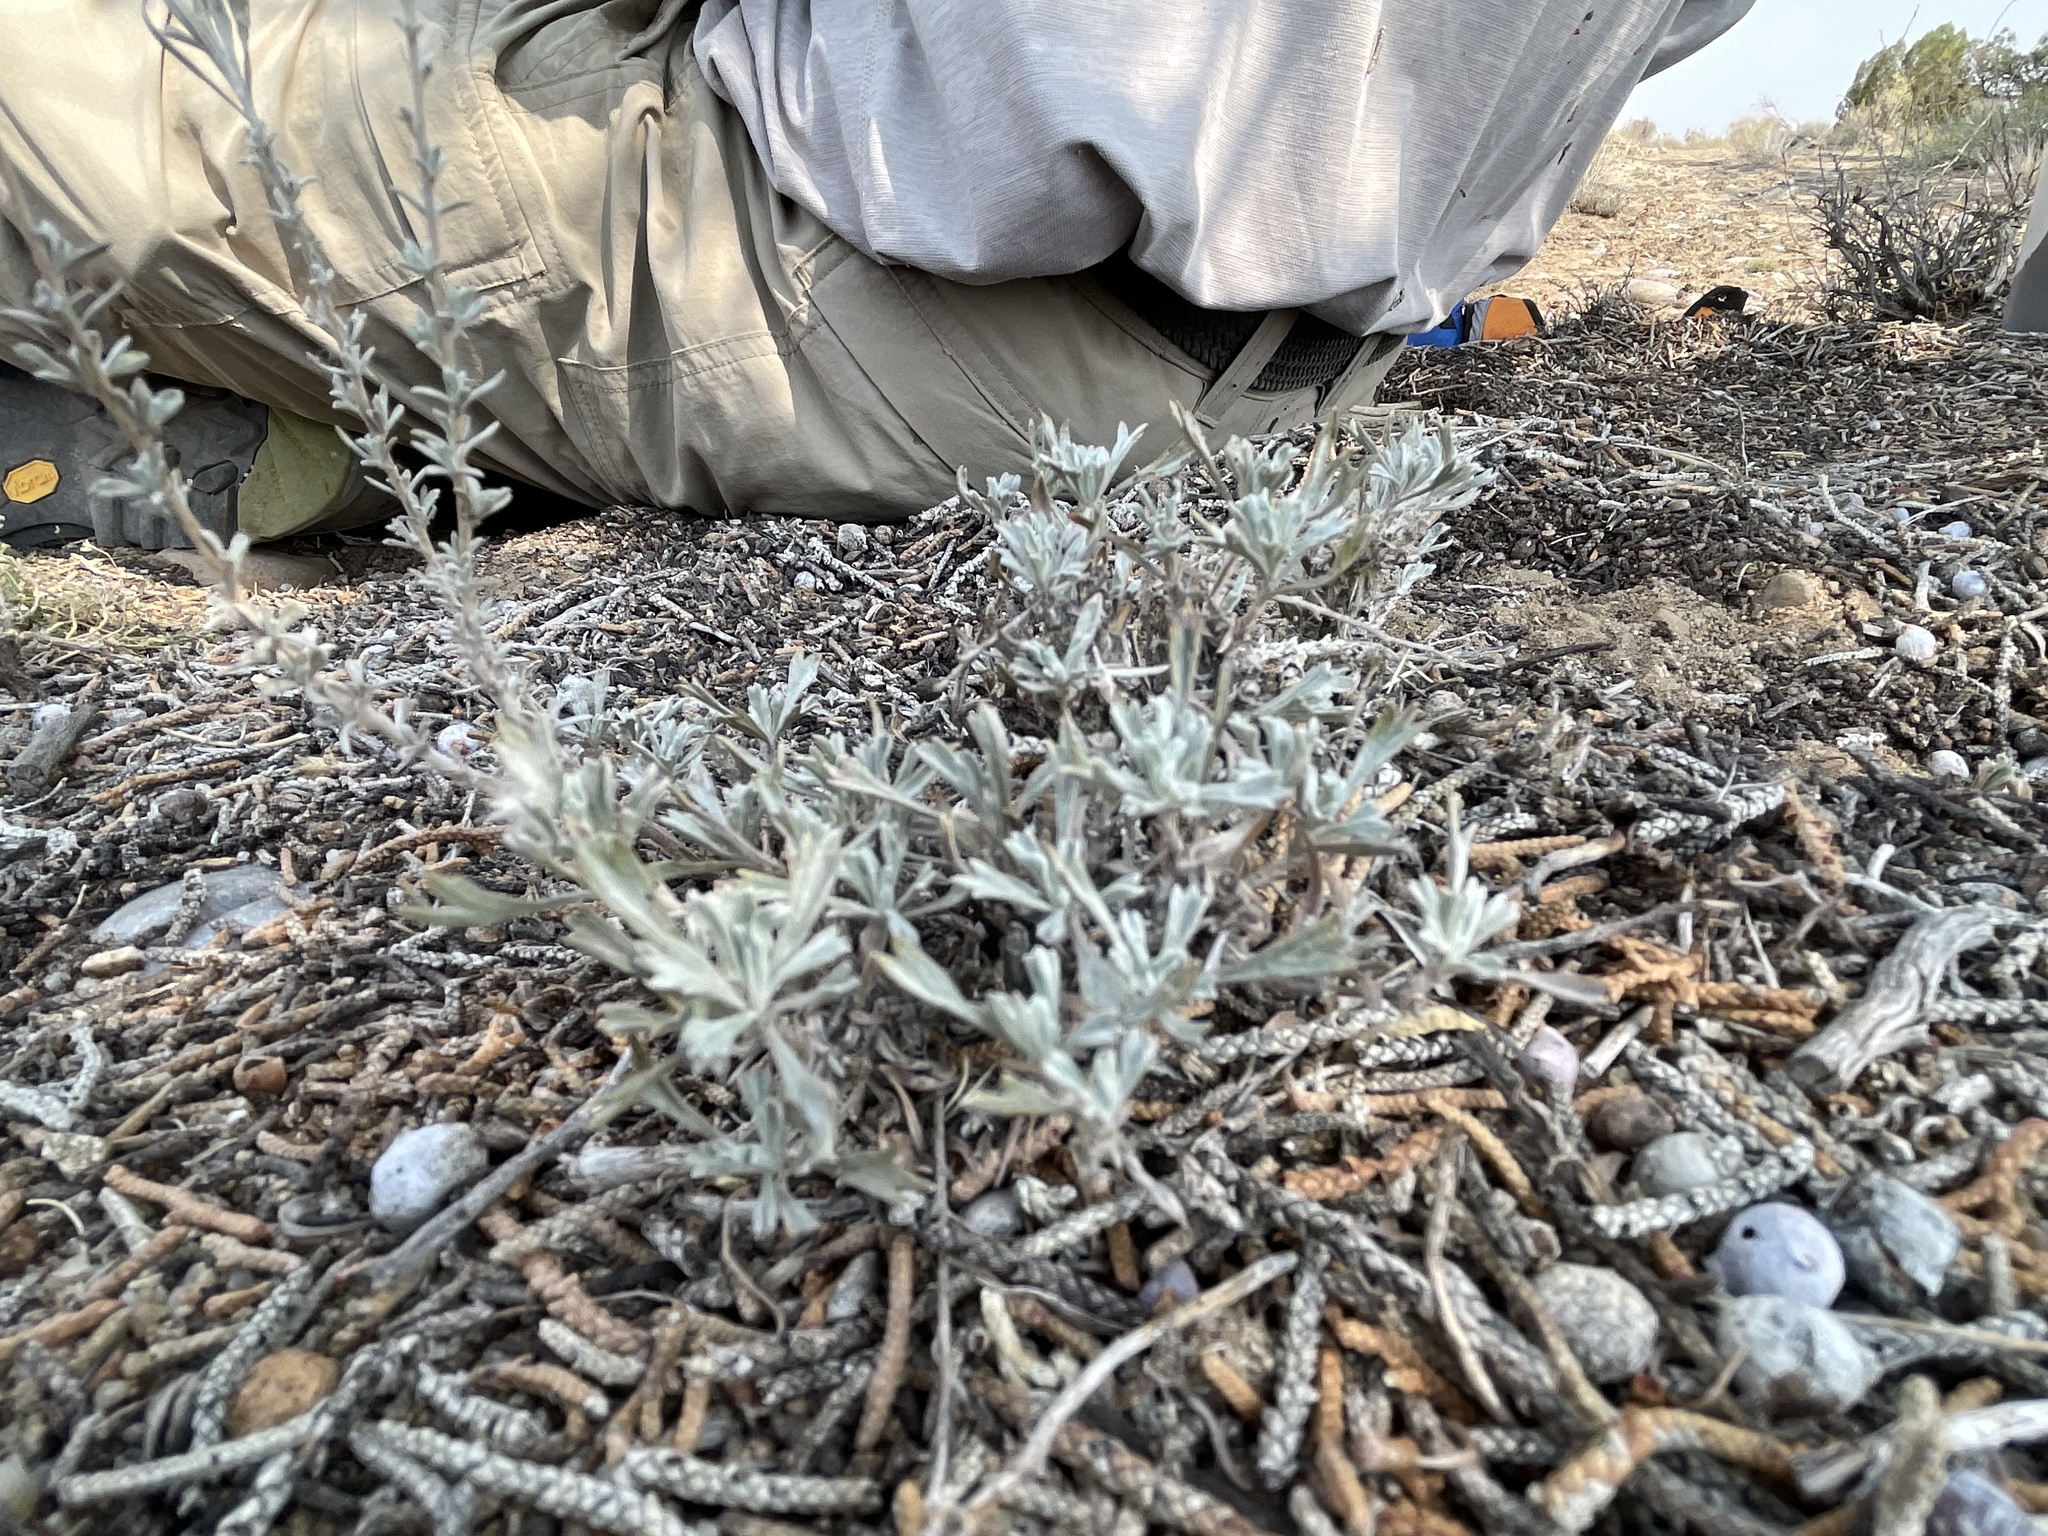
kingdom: Plantae
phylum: Tracheophyta
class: Magnoliopsida
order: Asterales
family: Asteraceae
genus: Artemisia
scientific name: Artemisia tridentata
